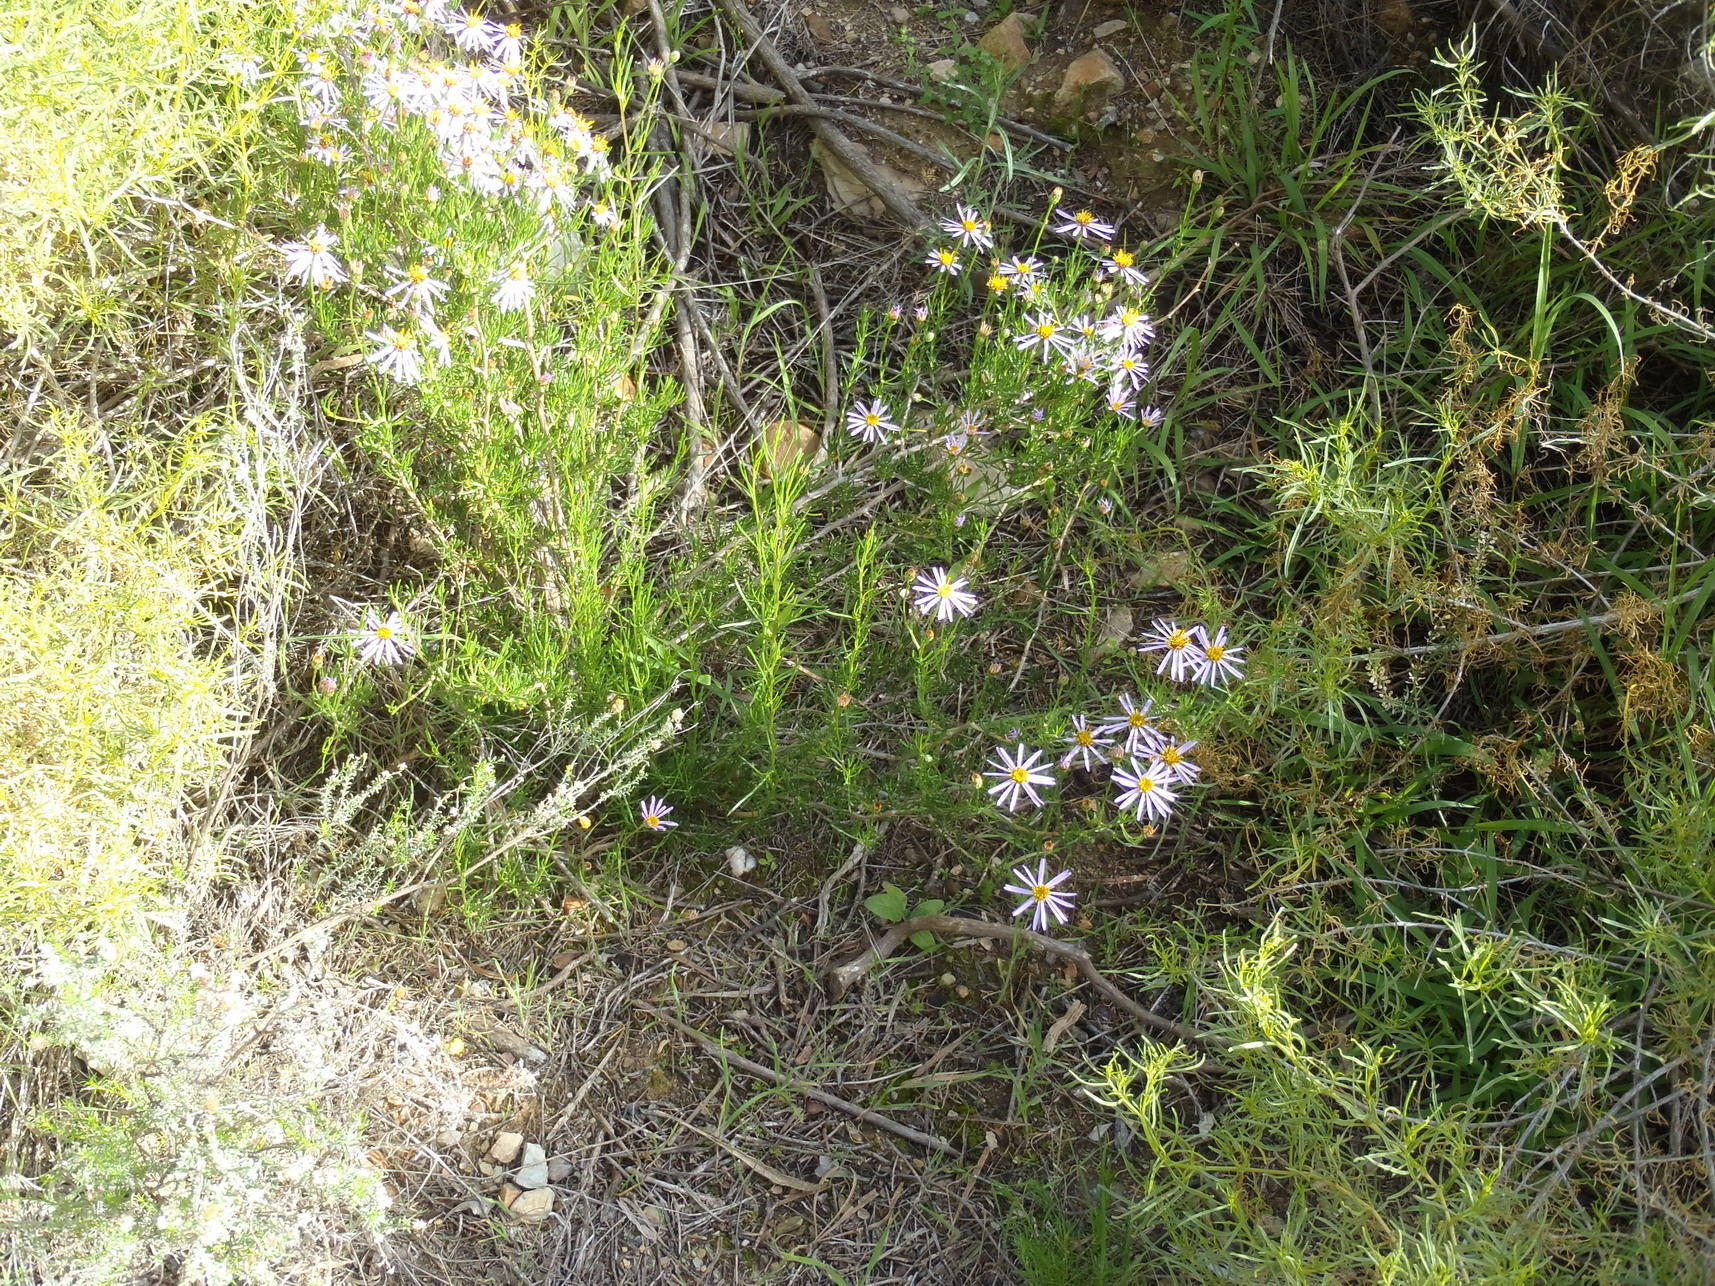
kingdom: Plantae
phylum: Tracheophyta
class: Magnoliopsida
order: Asterales
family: Asteraceae
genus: Felicia
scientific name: Felicia filifolia
